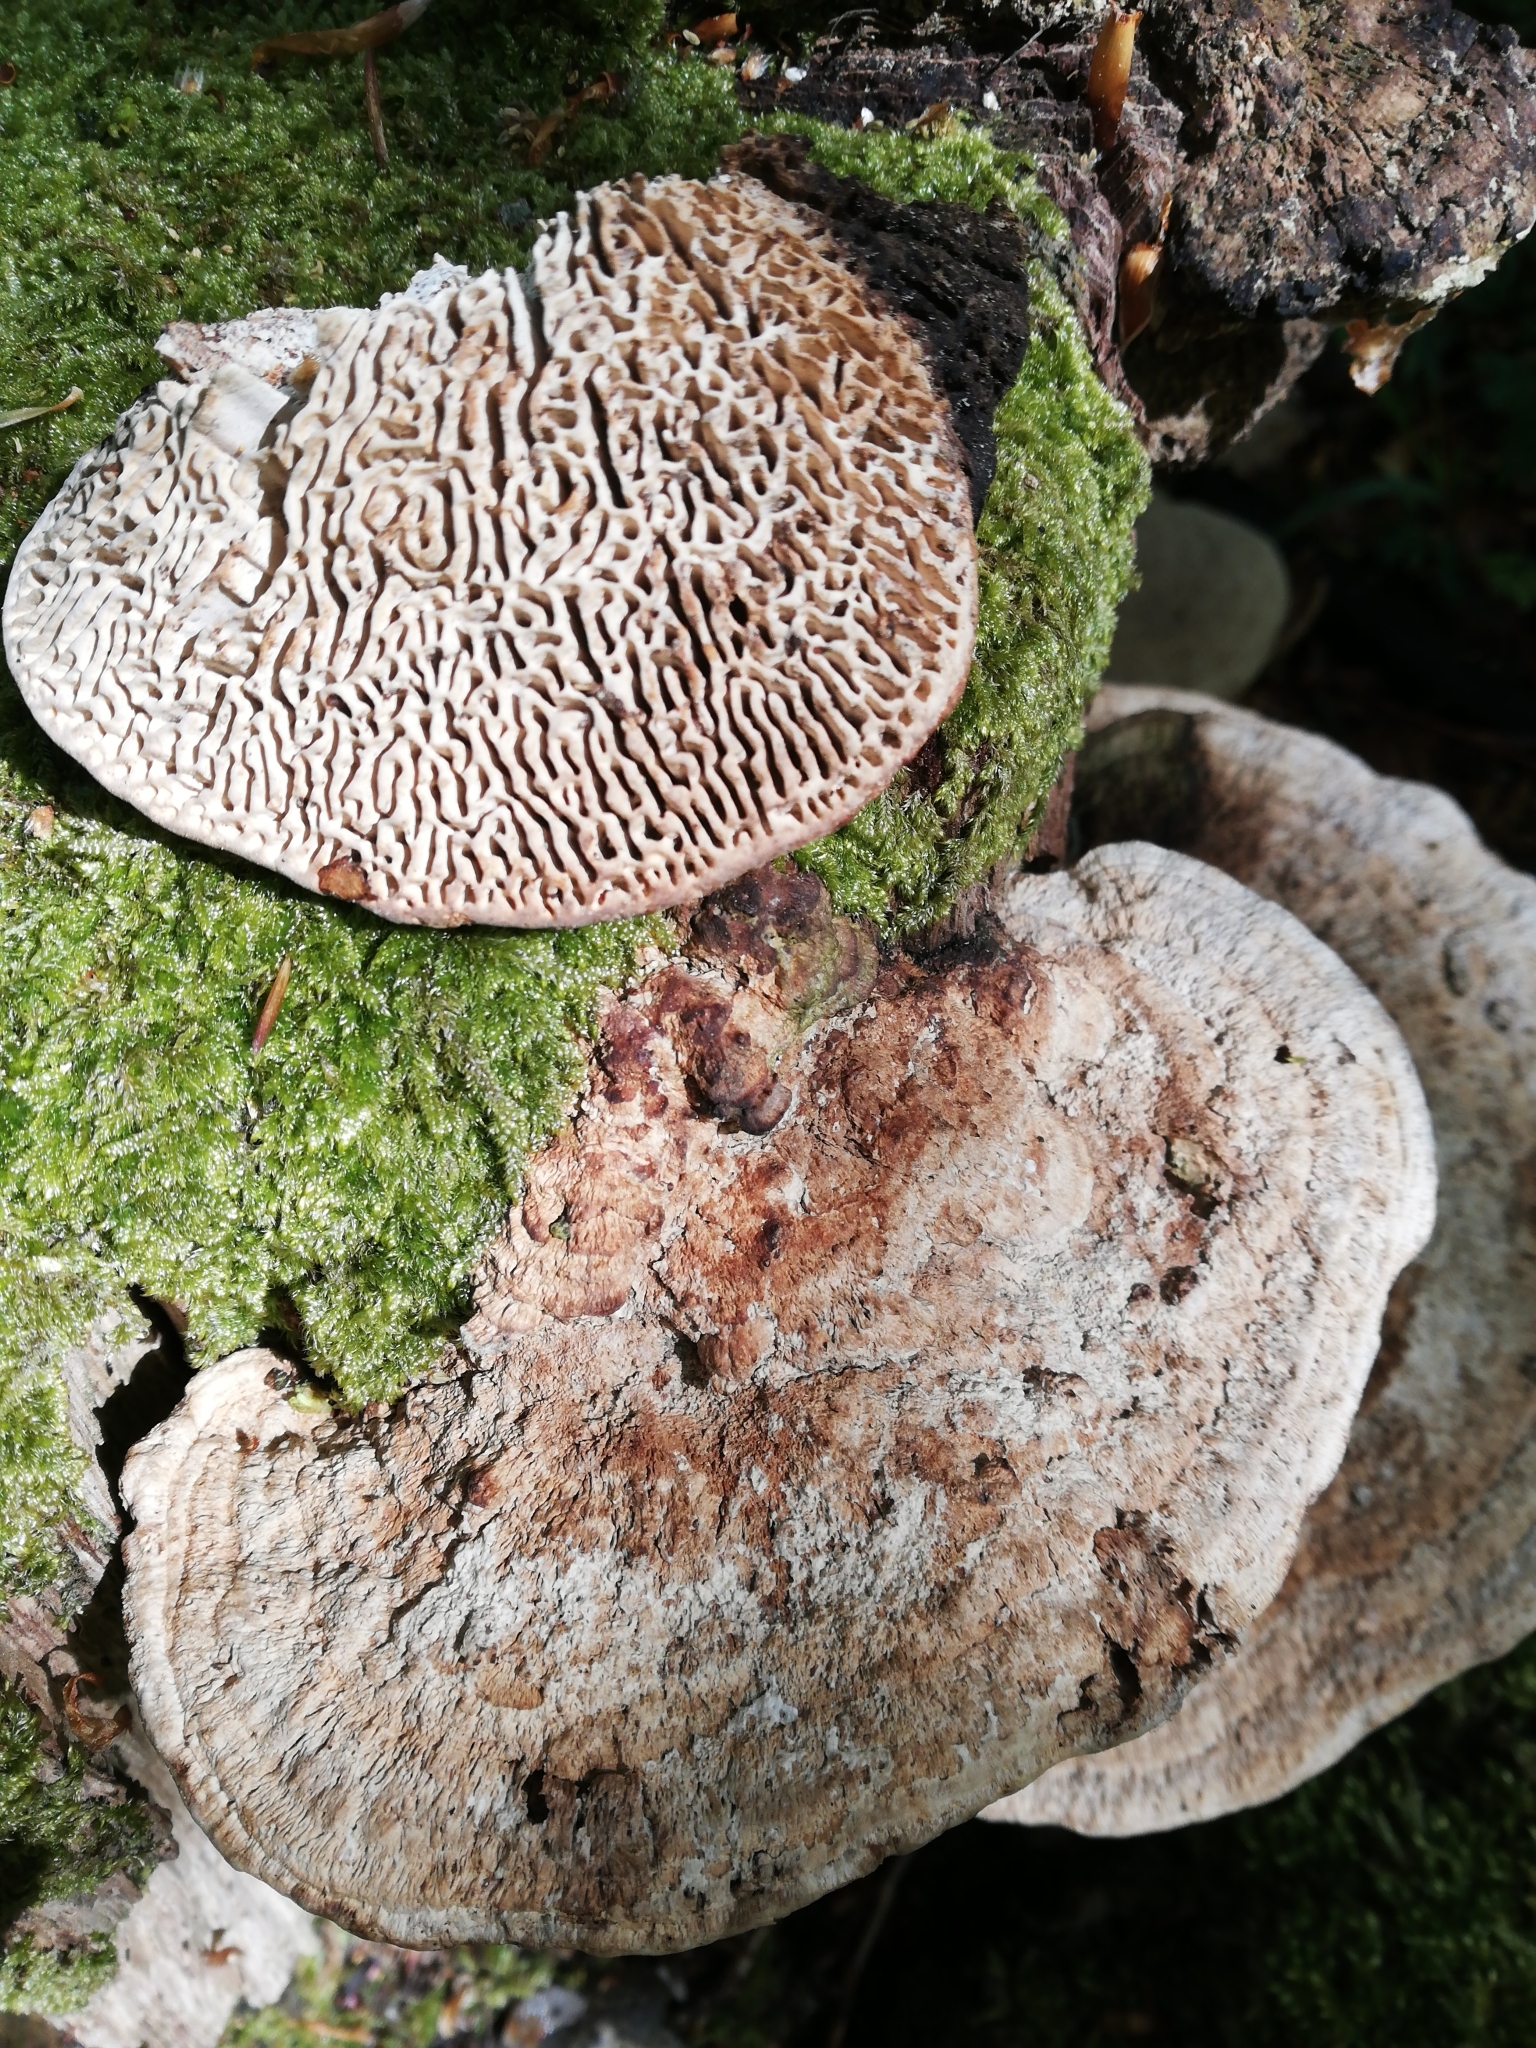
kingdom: Fungi
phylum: Basidiomycota
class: Agaricomycetes
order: Polyporales
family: Fomitopsidaceae
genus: Fomitopsis
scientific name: Fomitopsis
